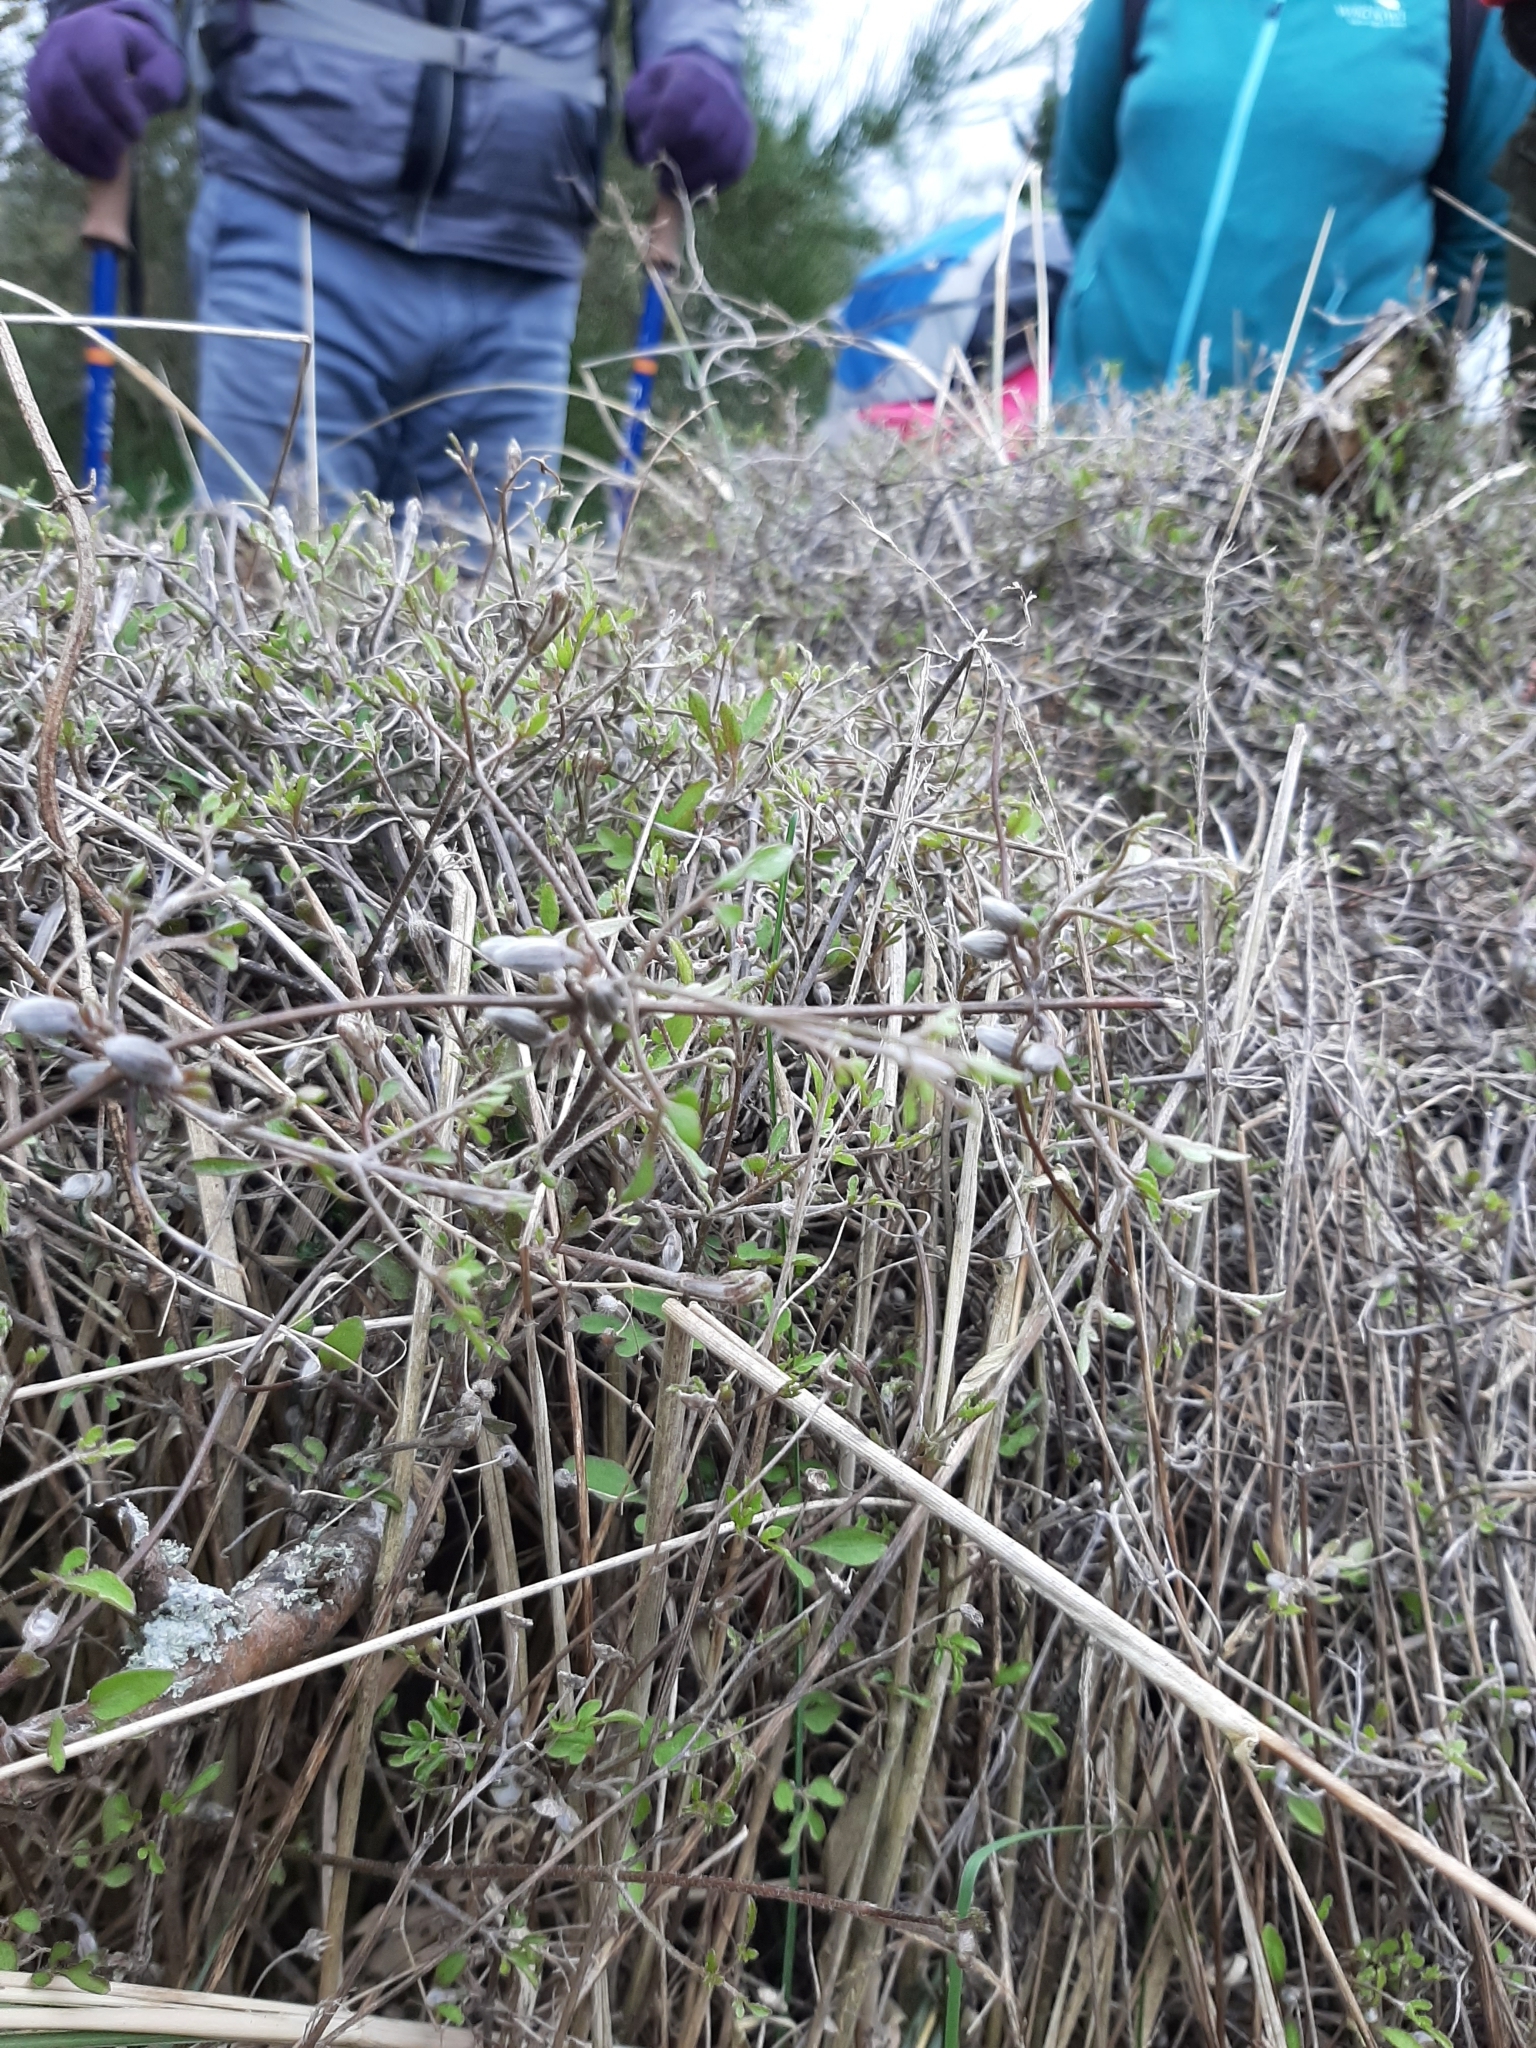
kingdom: Plantae
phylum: Tracheophyta
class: Magnoliopsida
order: Ranunculales
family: Ranunculaceae
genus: Clematis
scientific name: Clematis marata
